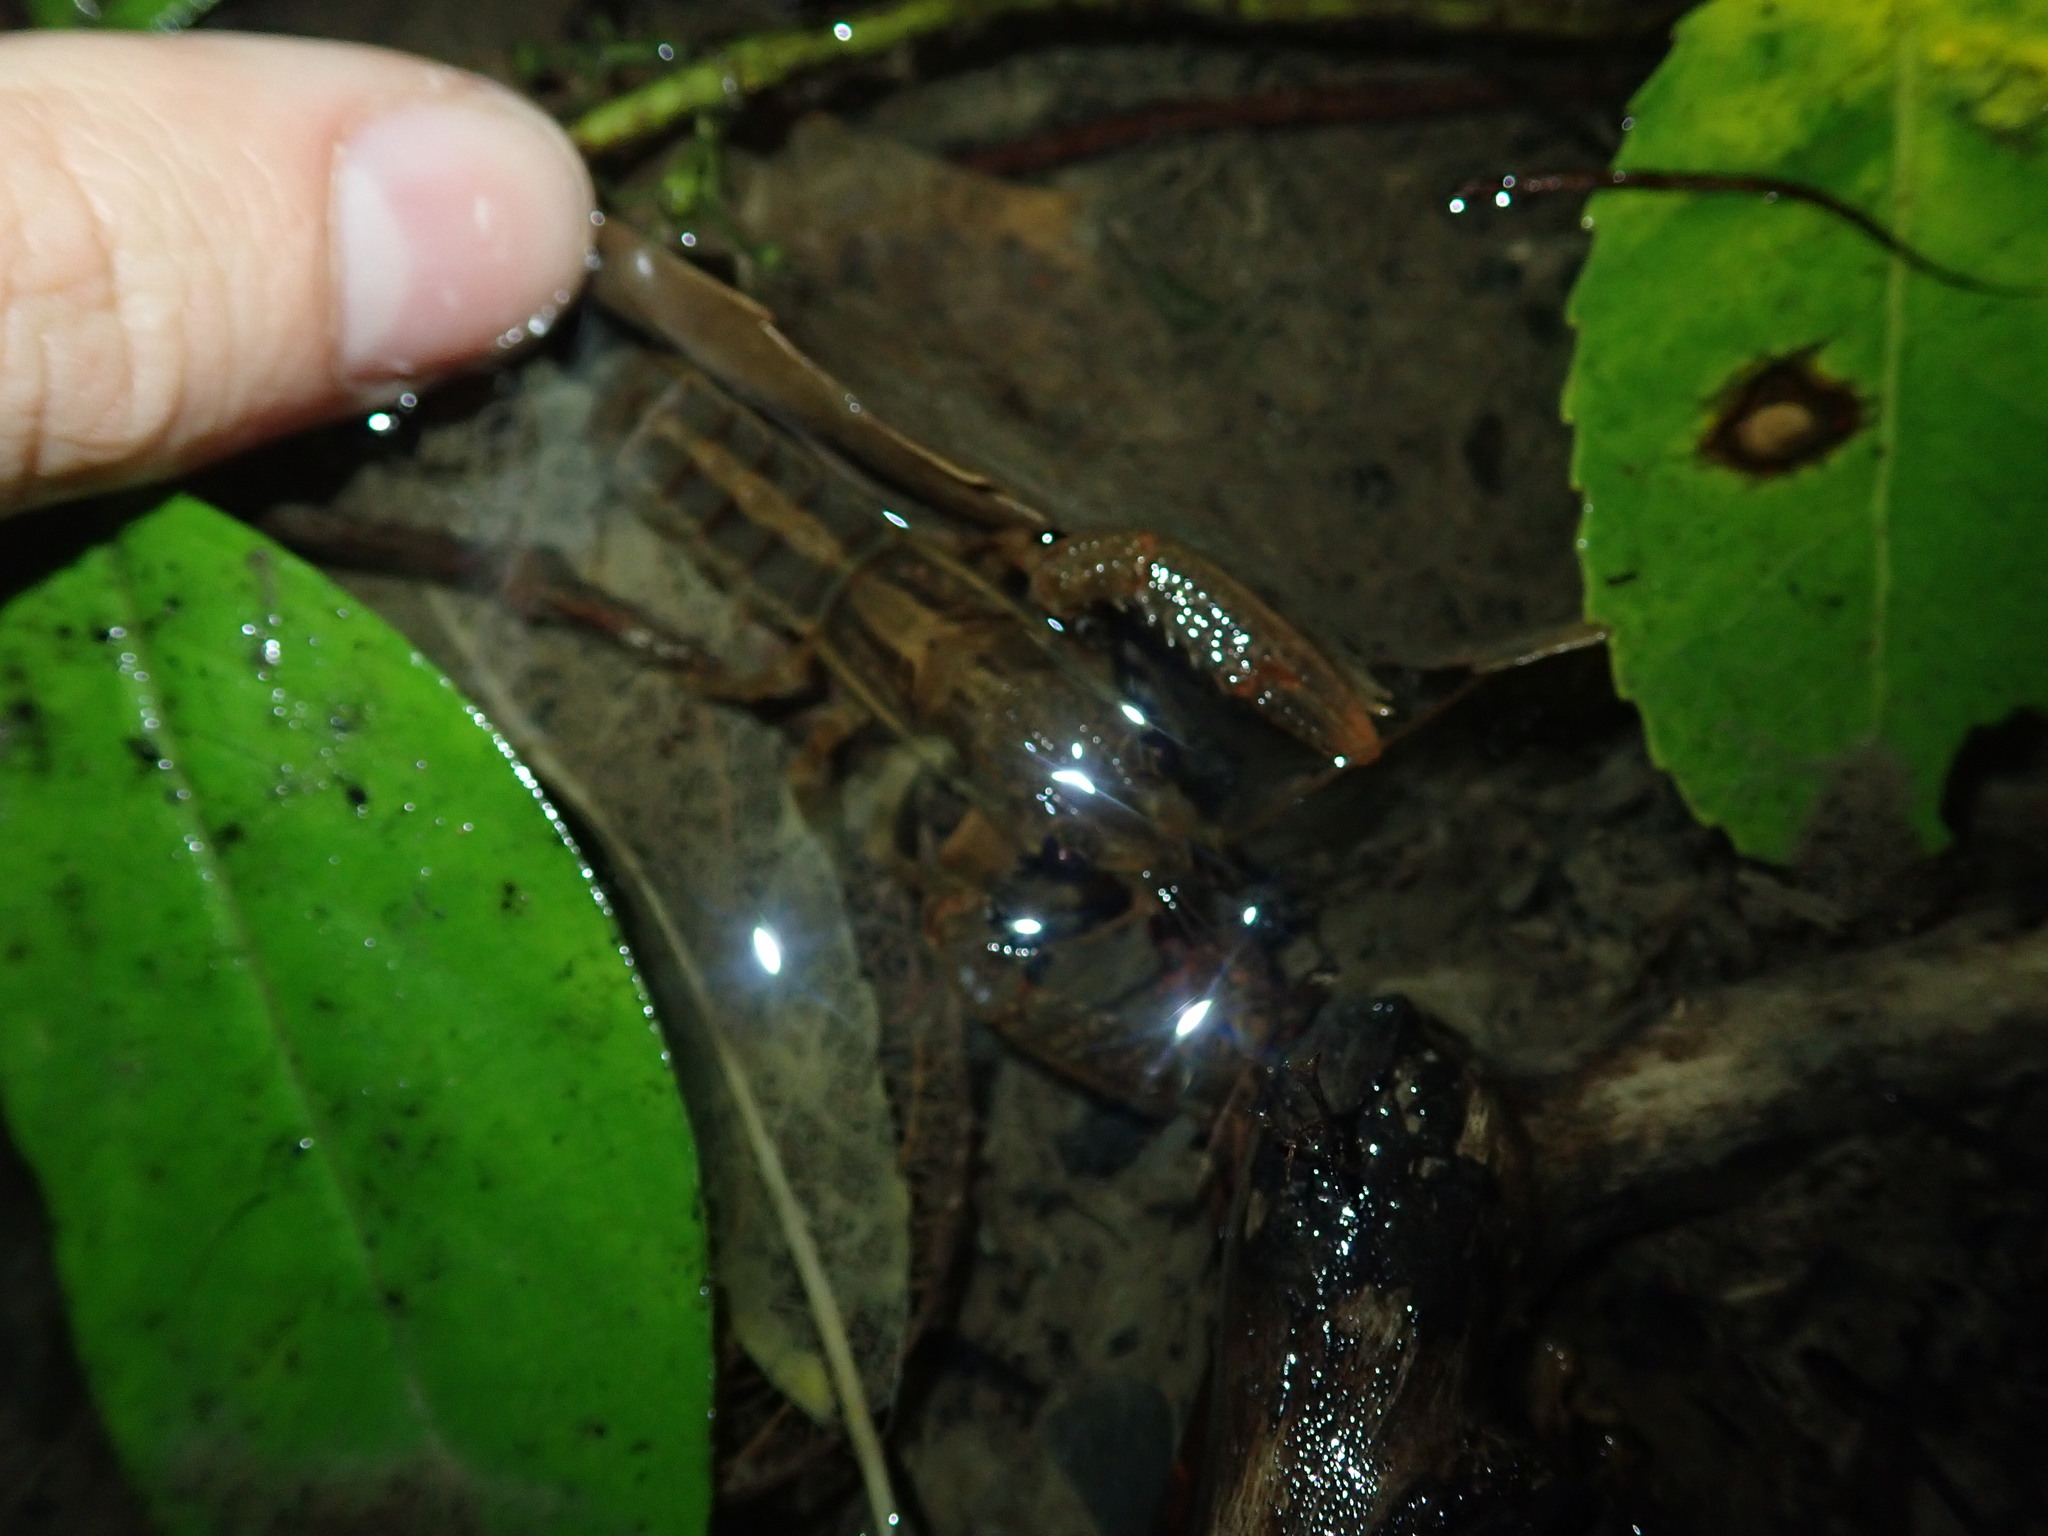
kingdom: Animalia
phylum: Arthropoda
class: Malacostraca
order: Decapoda
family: Parastacidae
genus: Paranephrops
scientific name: Paranephrops planifrons
